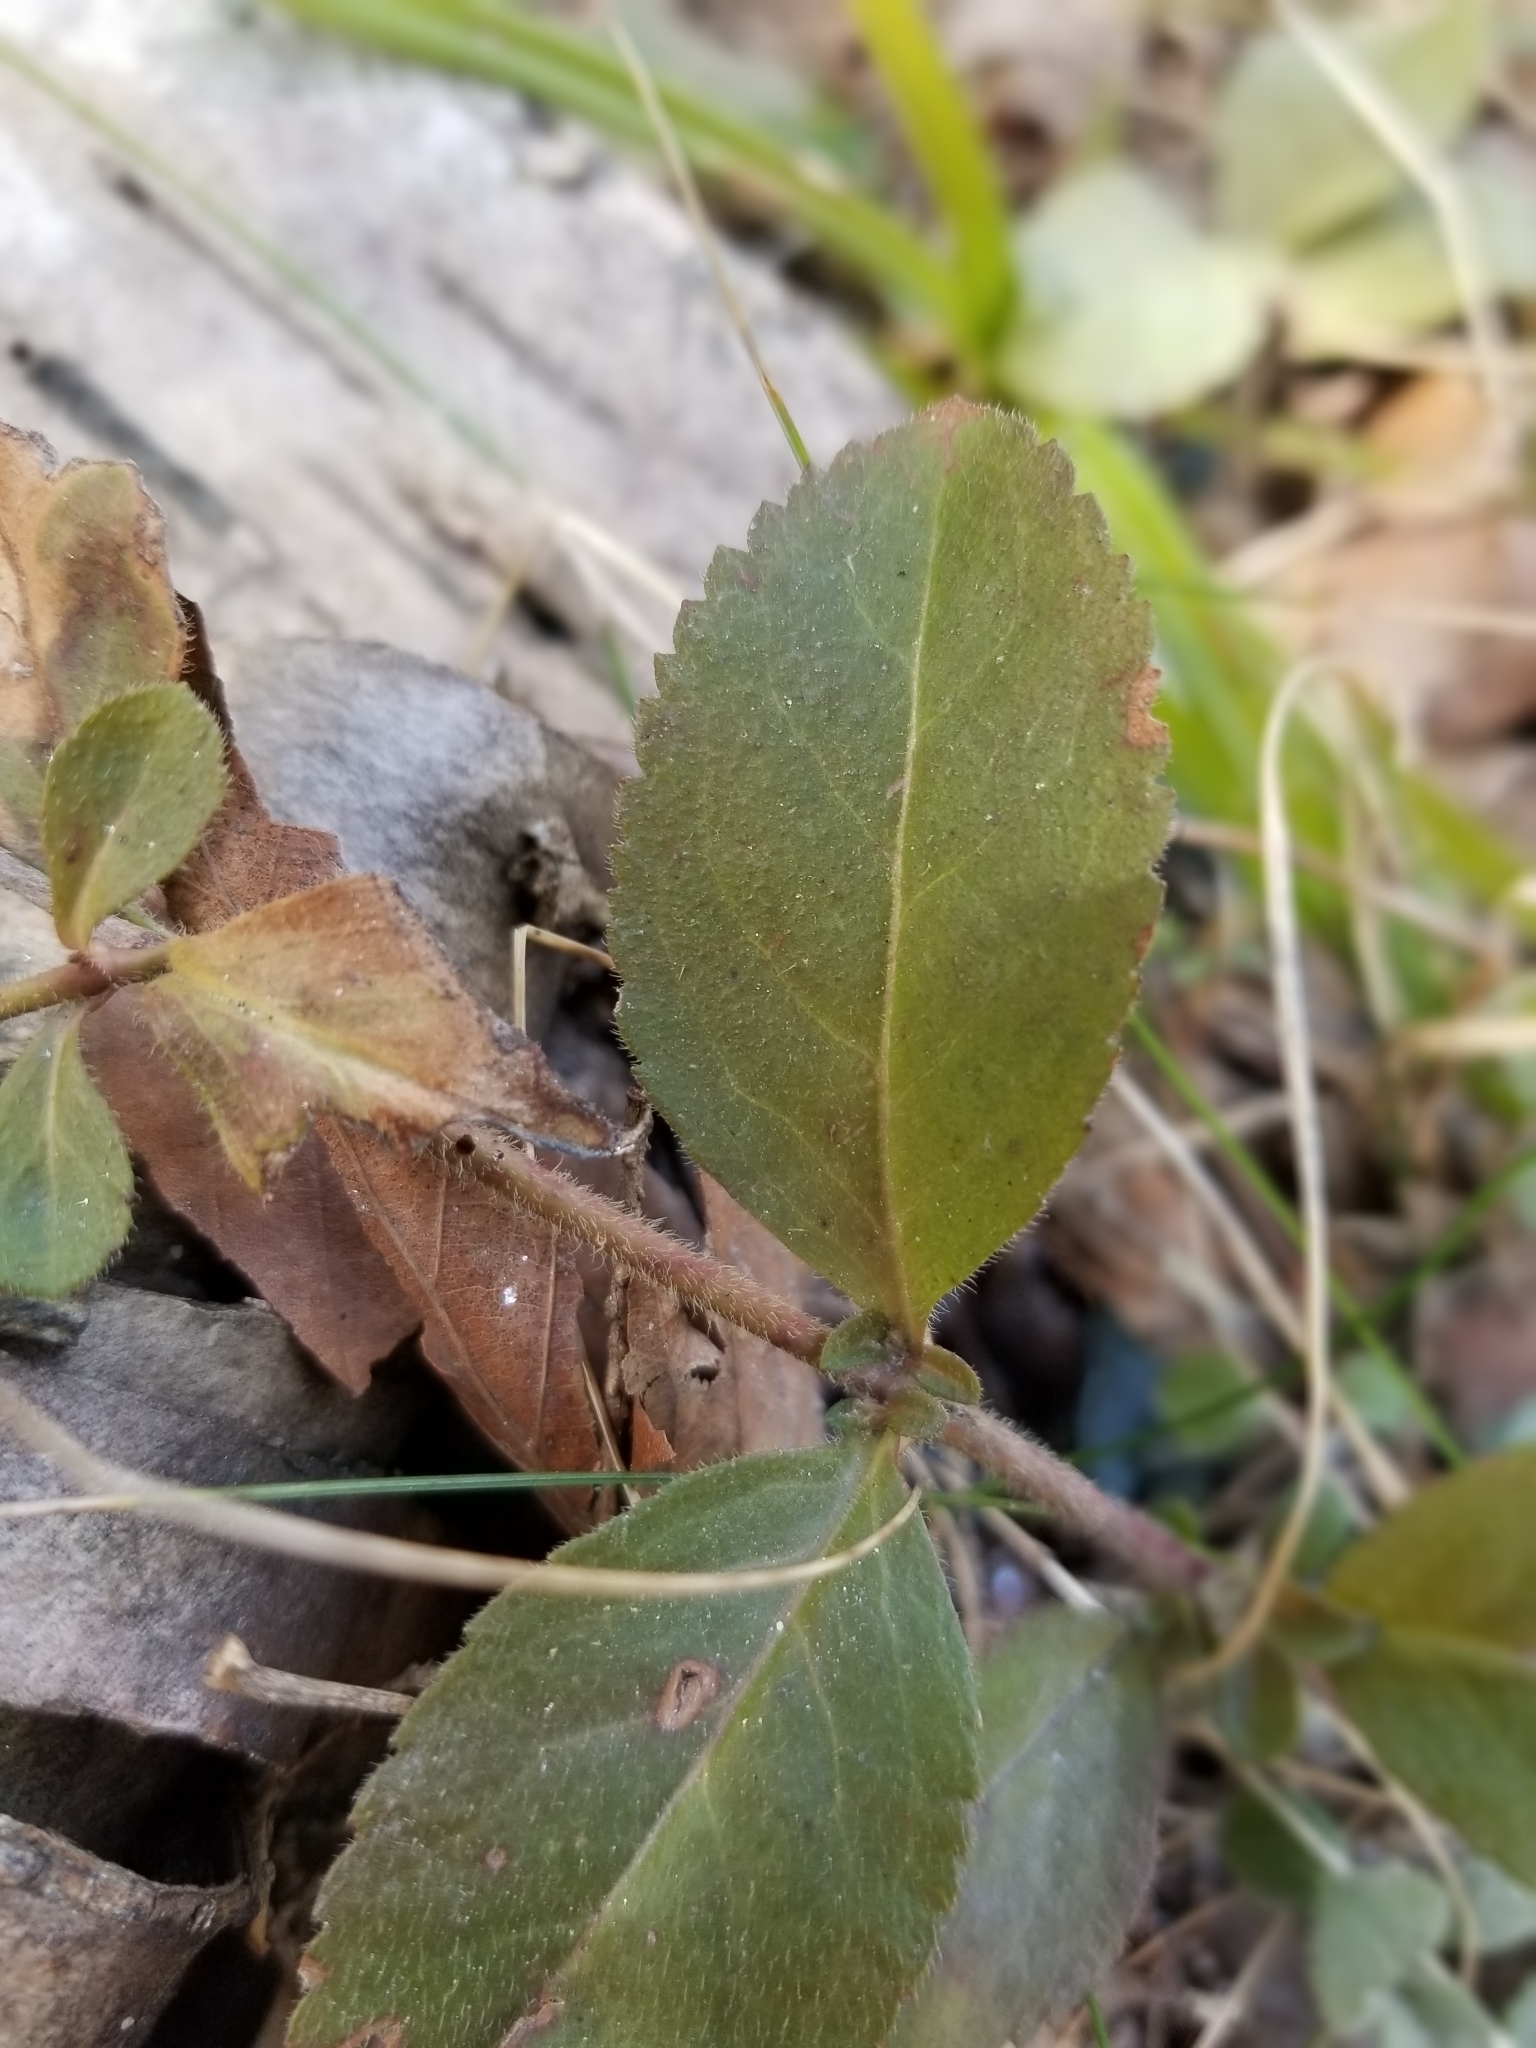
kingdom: Plantae
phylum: Tracheophyta
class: Magnoliopsida
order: Lamiales
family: Plantaginaceae
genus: Veronica
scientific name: Veronica officinalis
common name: Common speedwell
